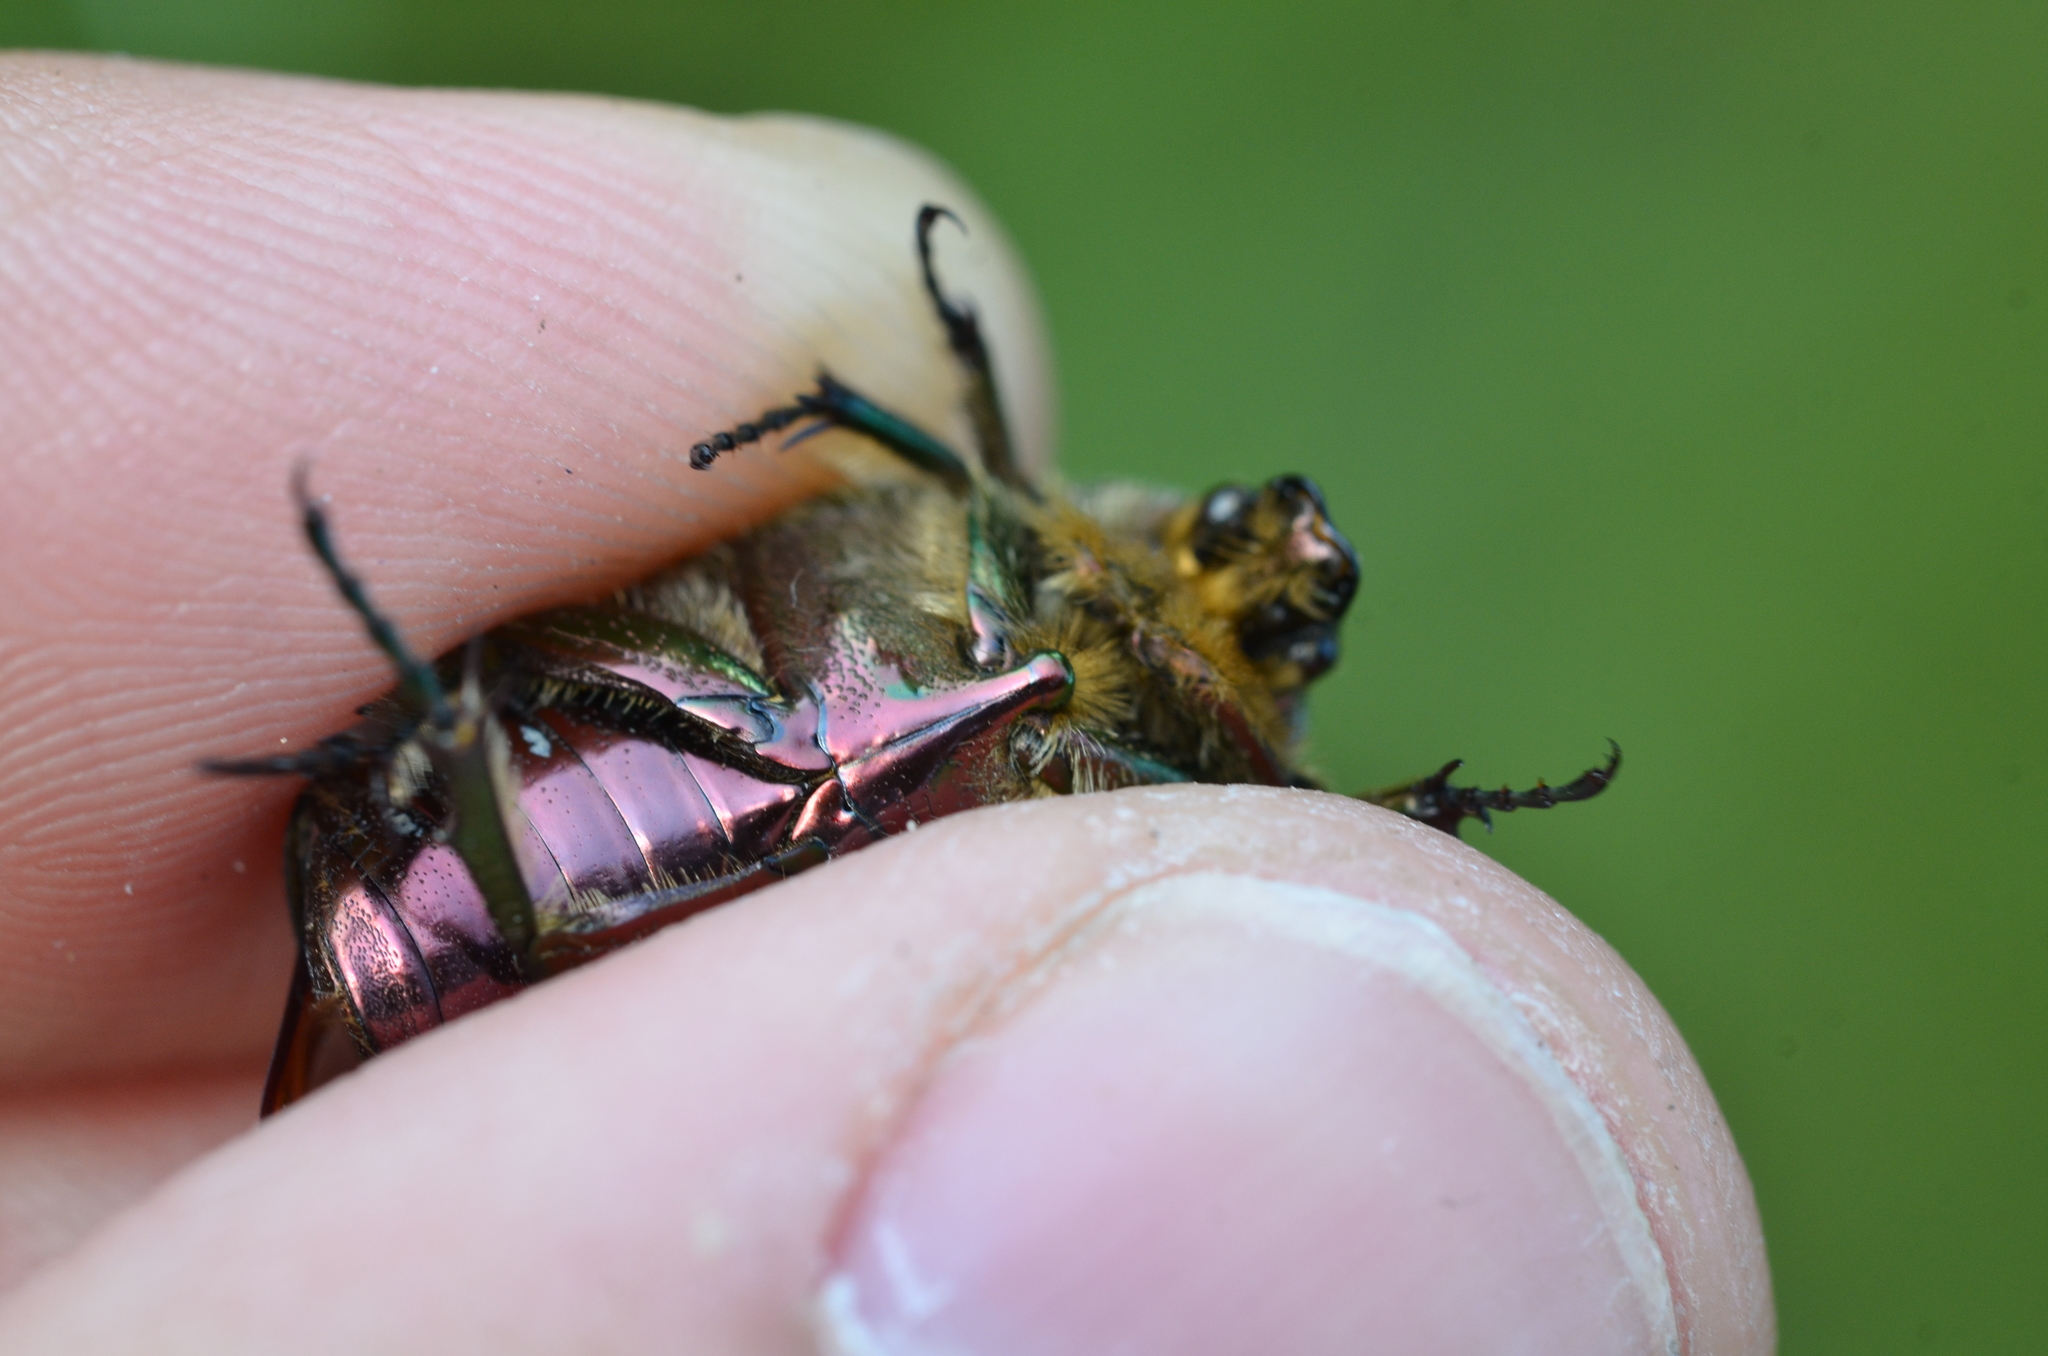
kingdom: Animalia
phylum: Arthropoda
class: Insecta
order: Coleoptera
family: Scarabaeidae
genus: Cetonia
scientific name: Cetonia aurata
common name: Rose chafer
